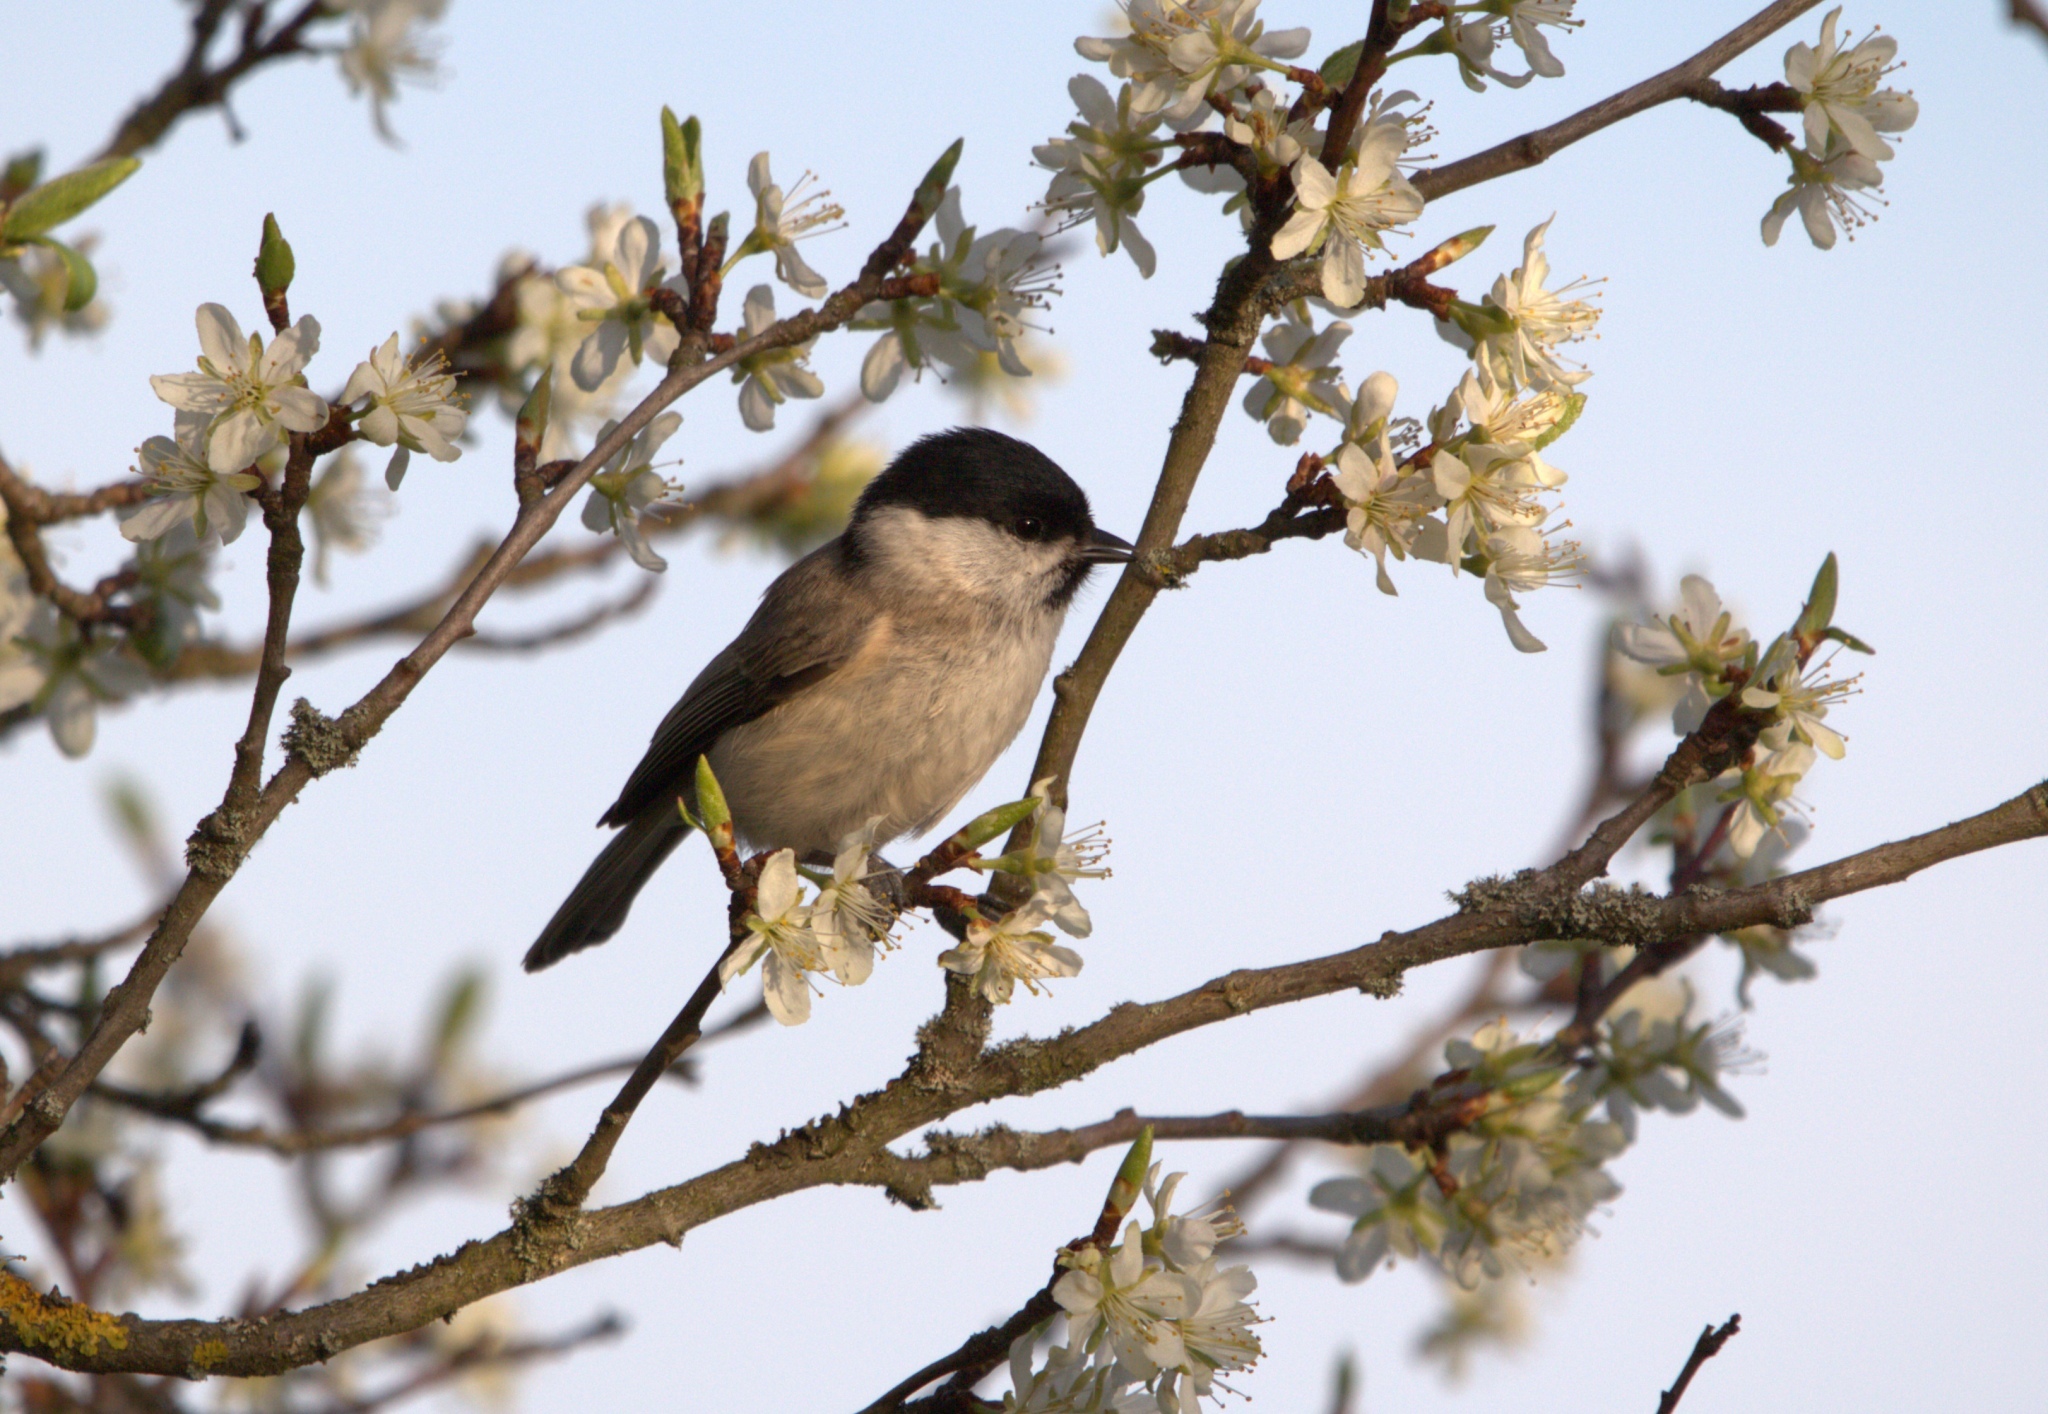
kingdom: Animalia
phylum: Chordata
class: Aves
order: Passeriformes
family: Paridae
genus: Poecile
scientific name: Poecile palustris
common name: Marsh tit
